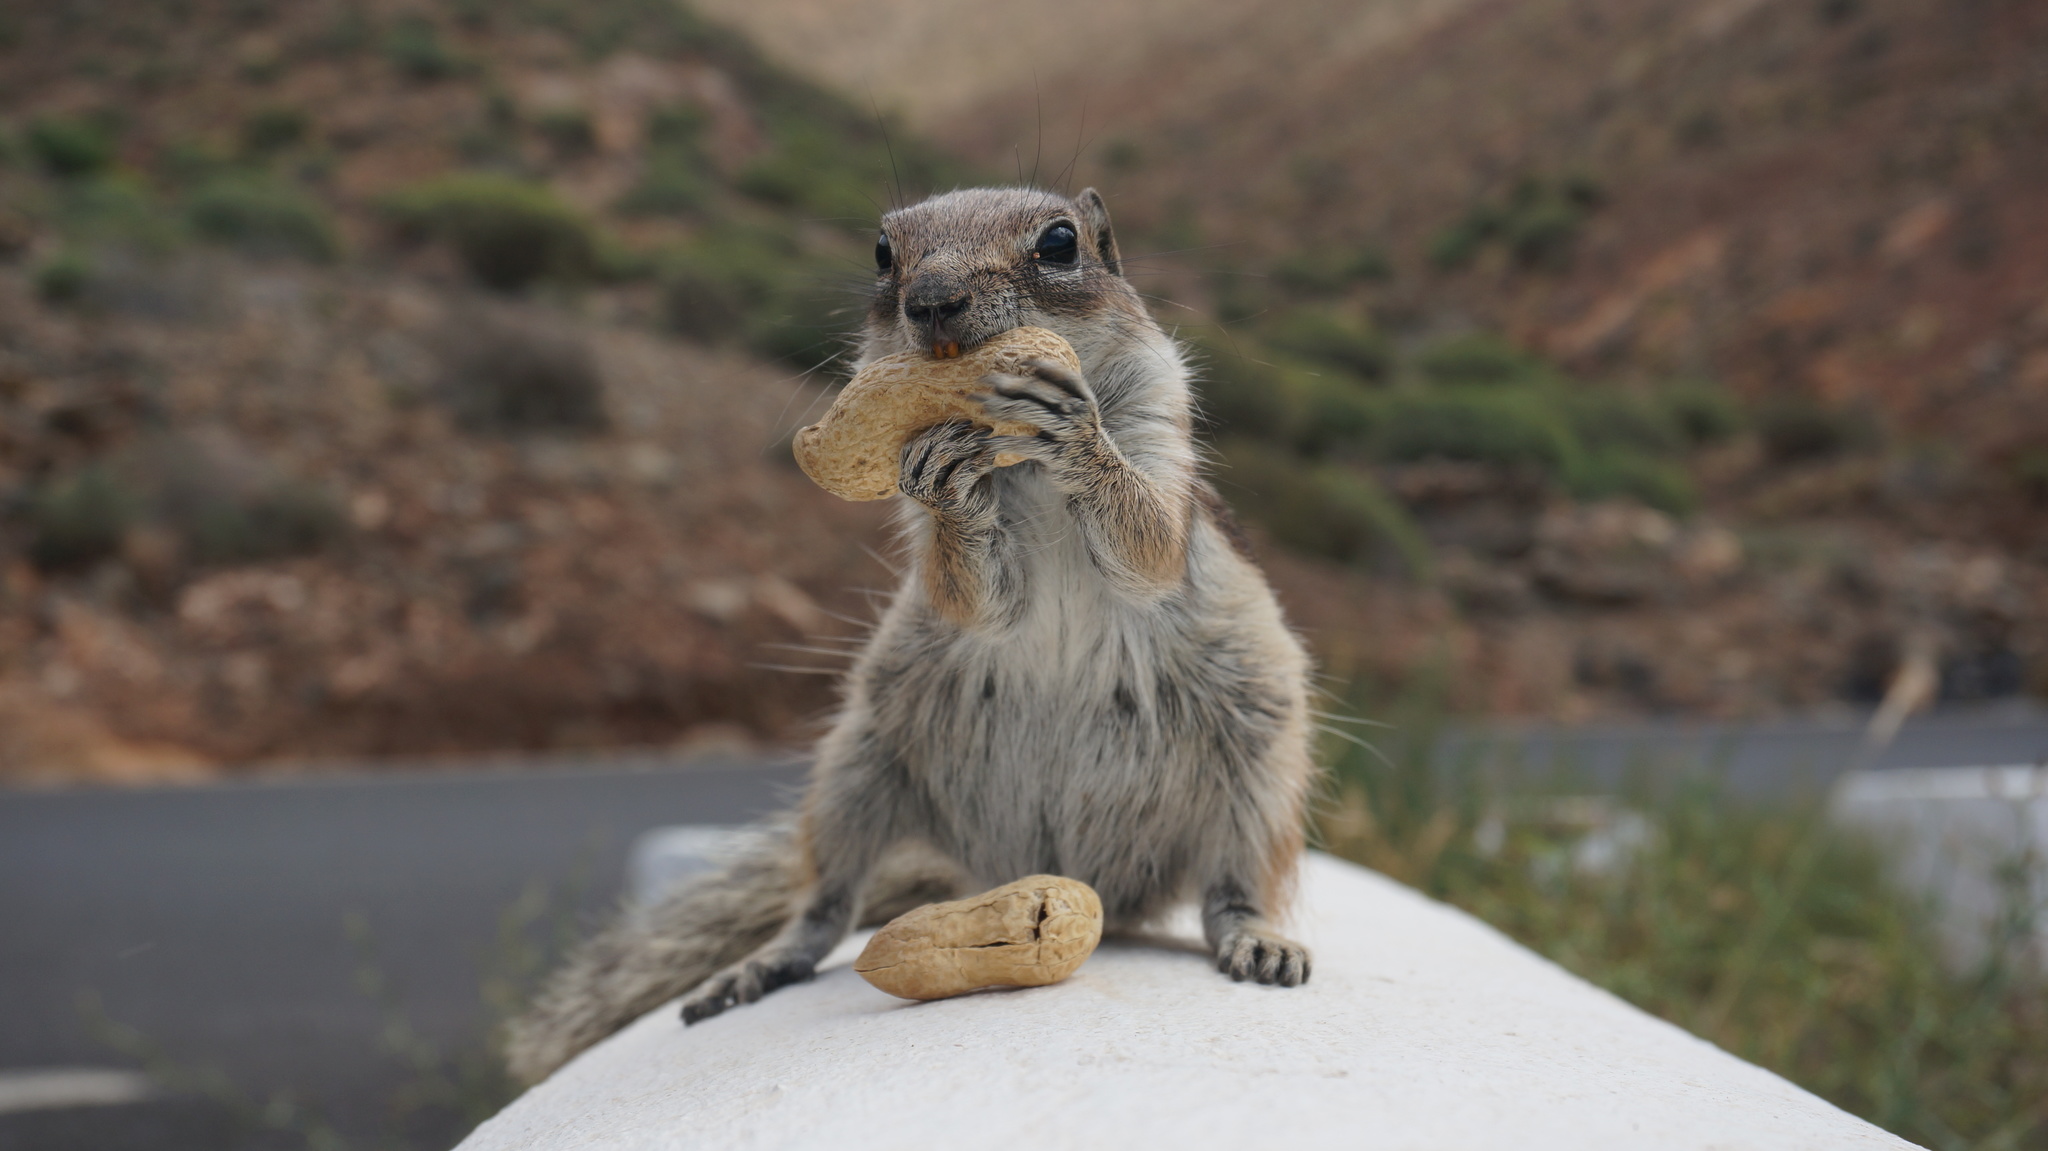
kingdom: Animalia
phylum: Chordata
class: Mammalia
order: Rodentia
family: Sciuridae
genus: Atlantoxerus
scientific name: Atlantoxerus getulus
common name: Barbary ground squirrel
